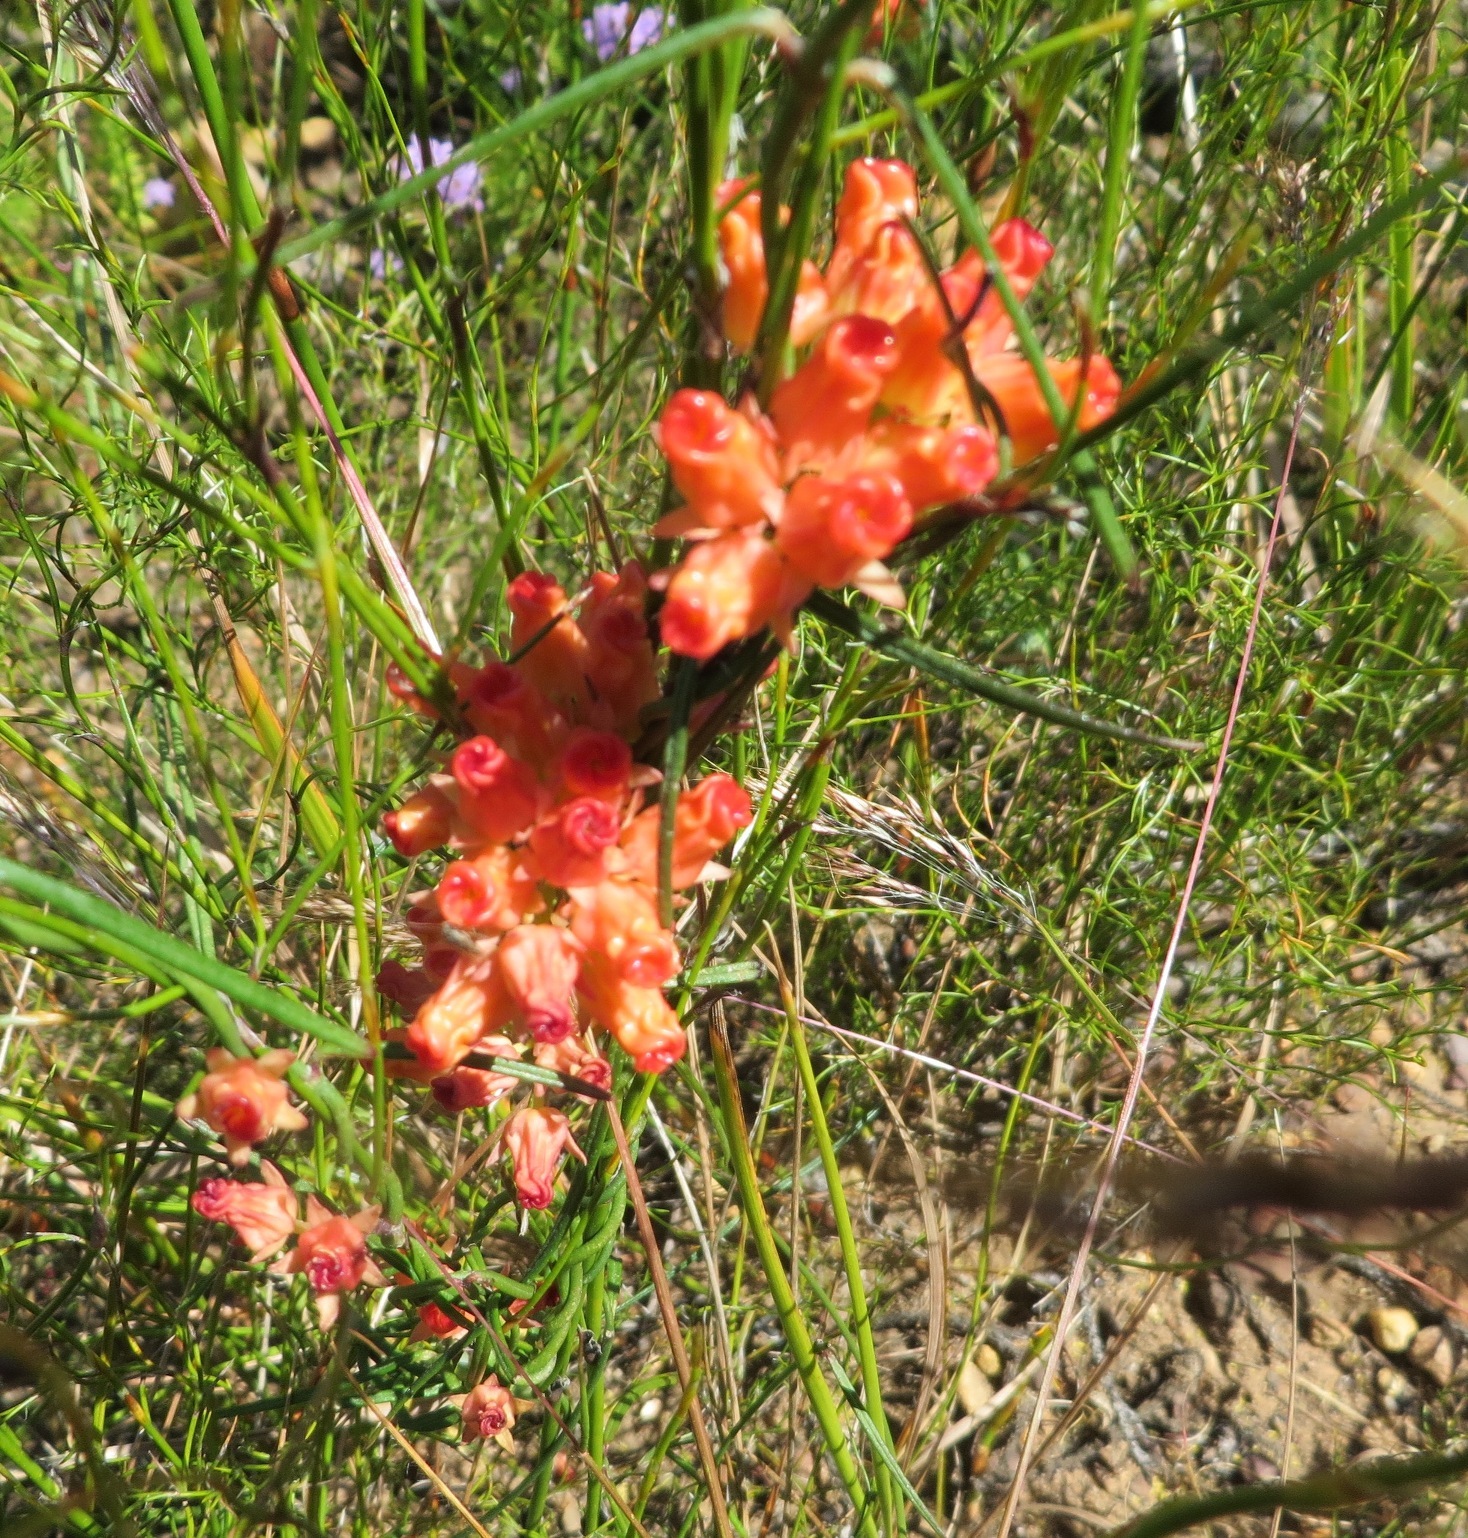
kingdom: Plantae
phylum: Tracheophyta
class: Magnoliopsida
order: Gentianales
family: Apocynaceae
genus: Microloma
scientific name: Microloma tenuifolium
